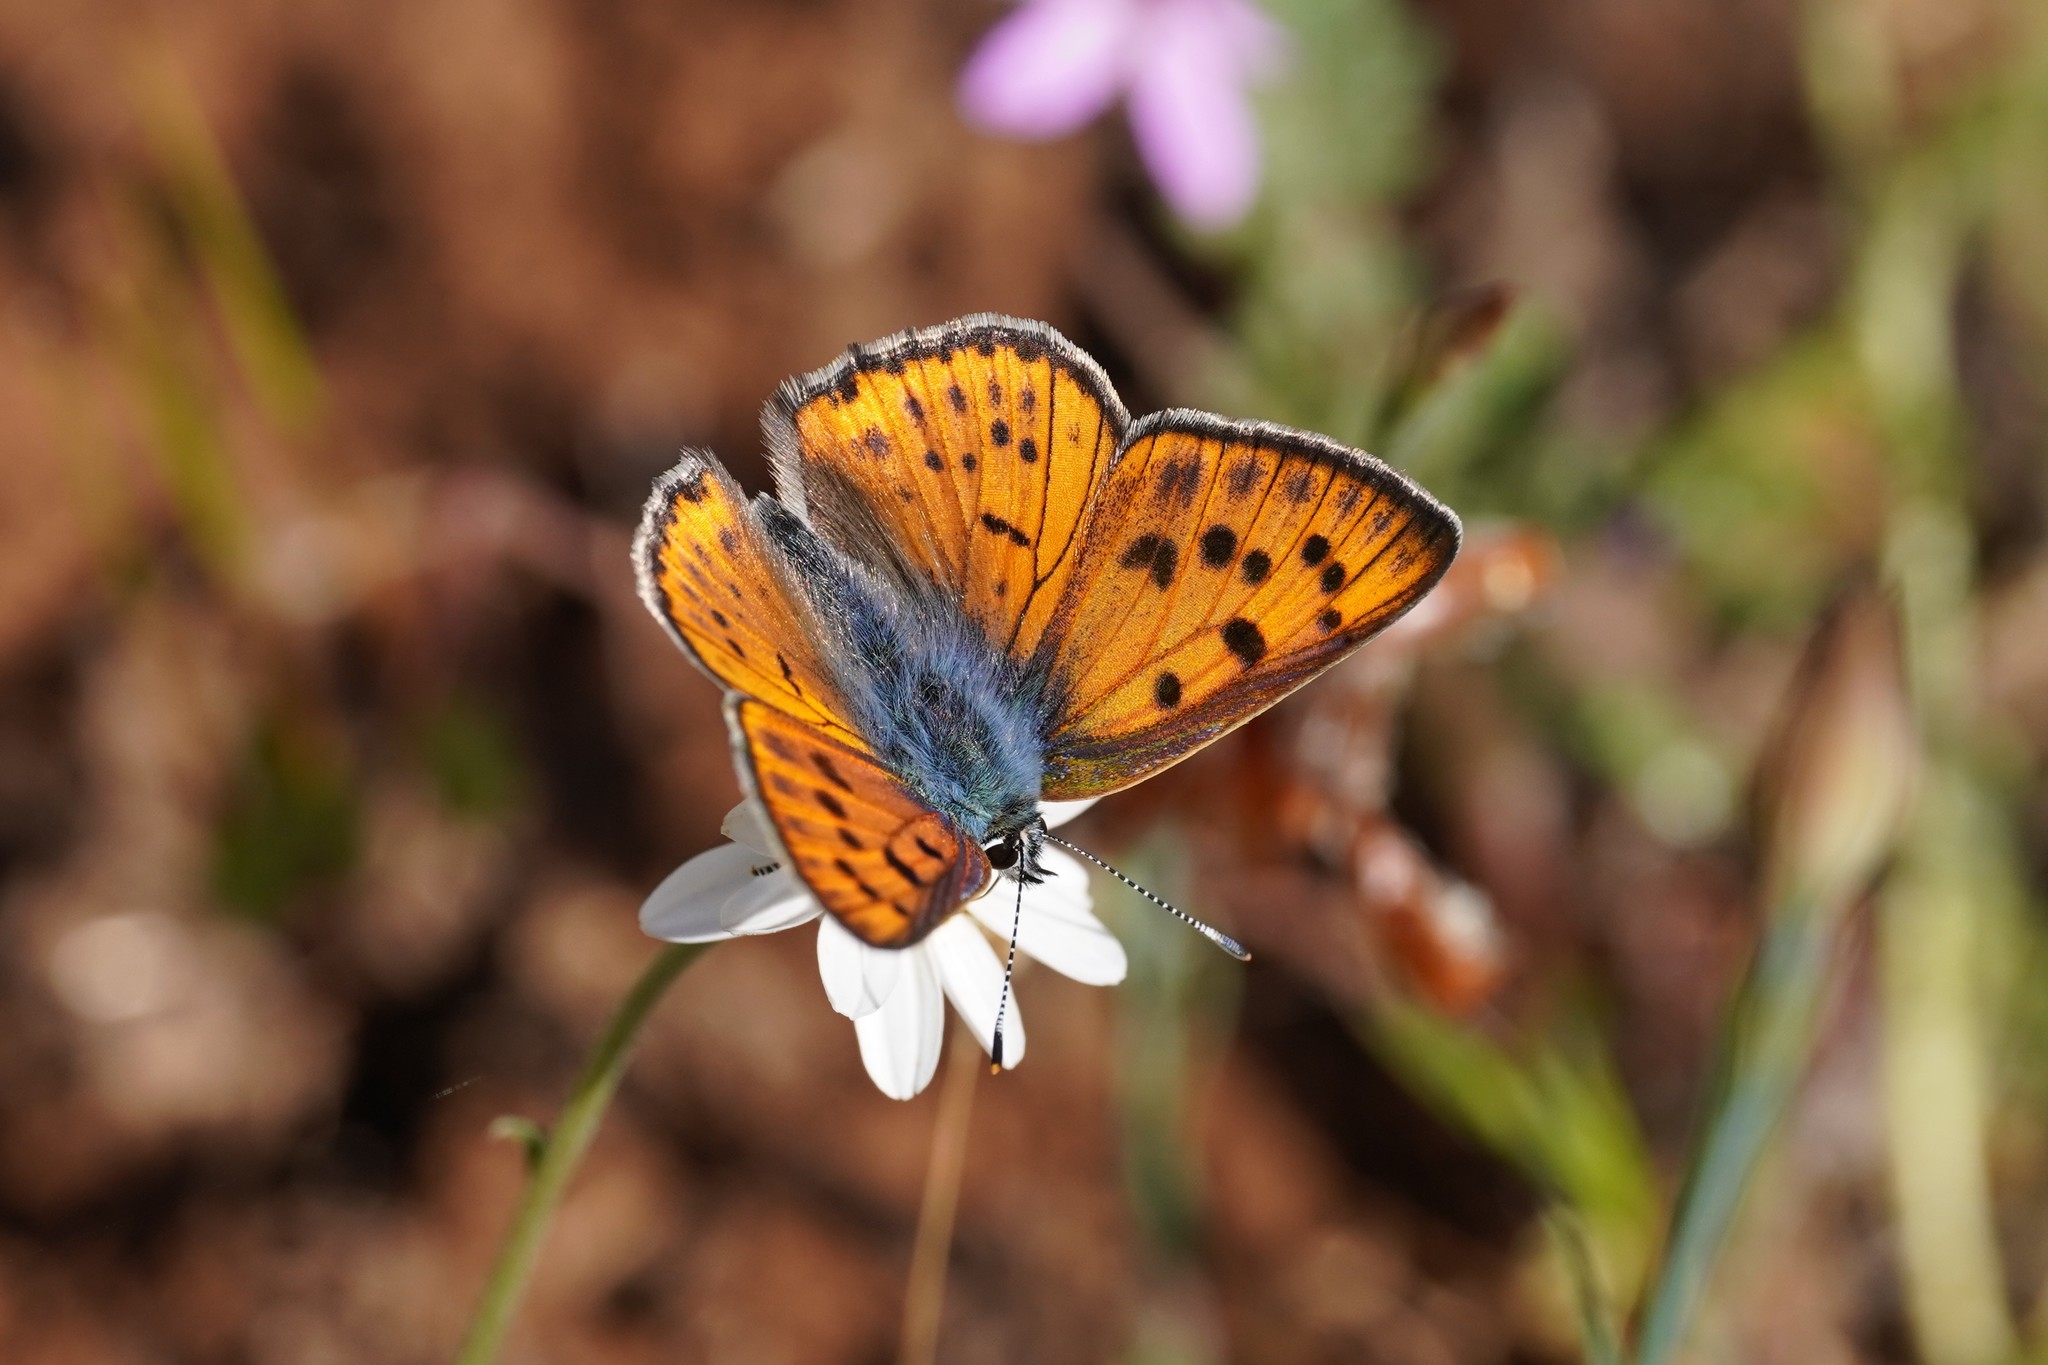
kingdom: Animalia
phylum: Arthropoda
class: Insecta
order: Lepidoptera
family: Lycaenidae
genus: Lycaena
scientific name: Lycaena alciphron
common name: Purple-shot copper
